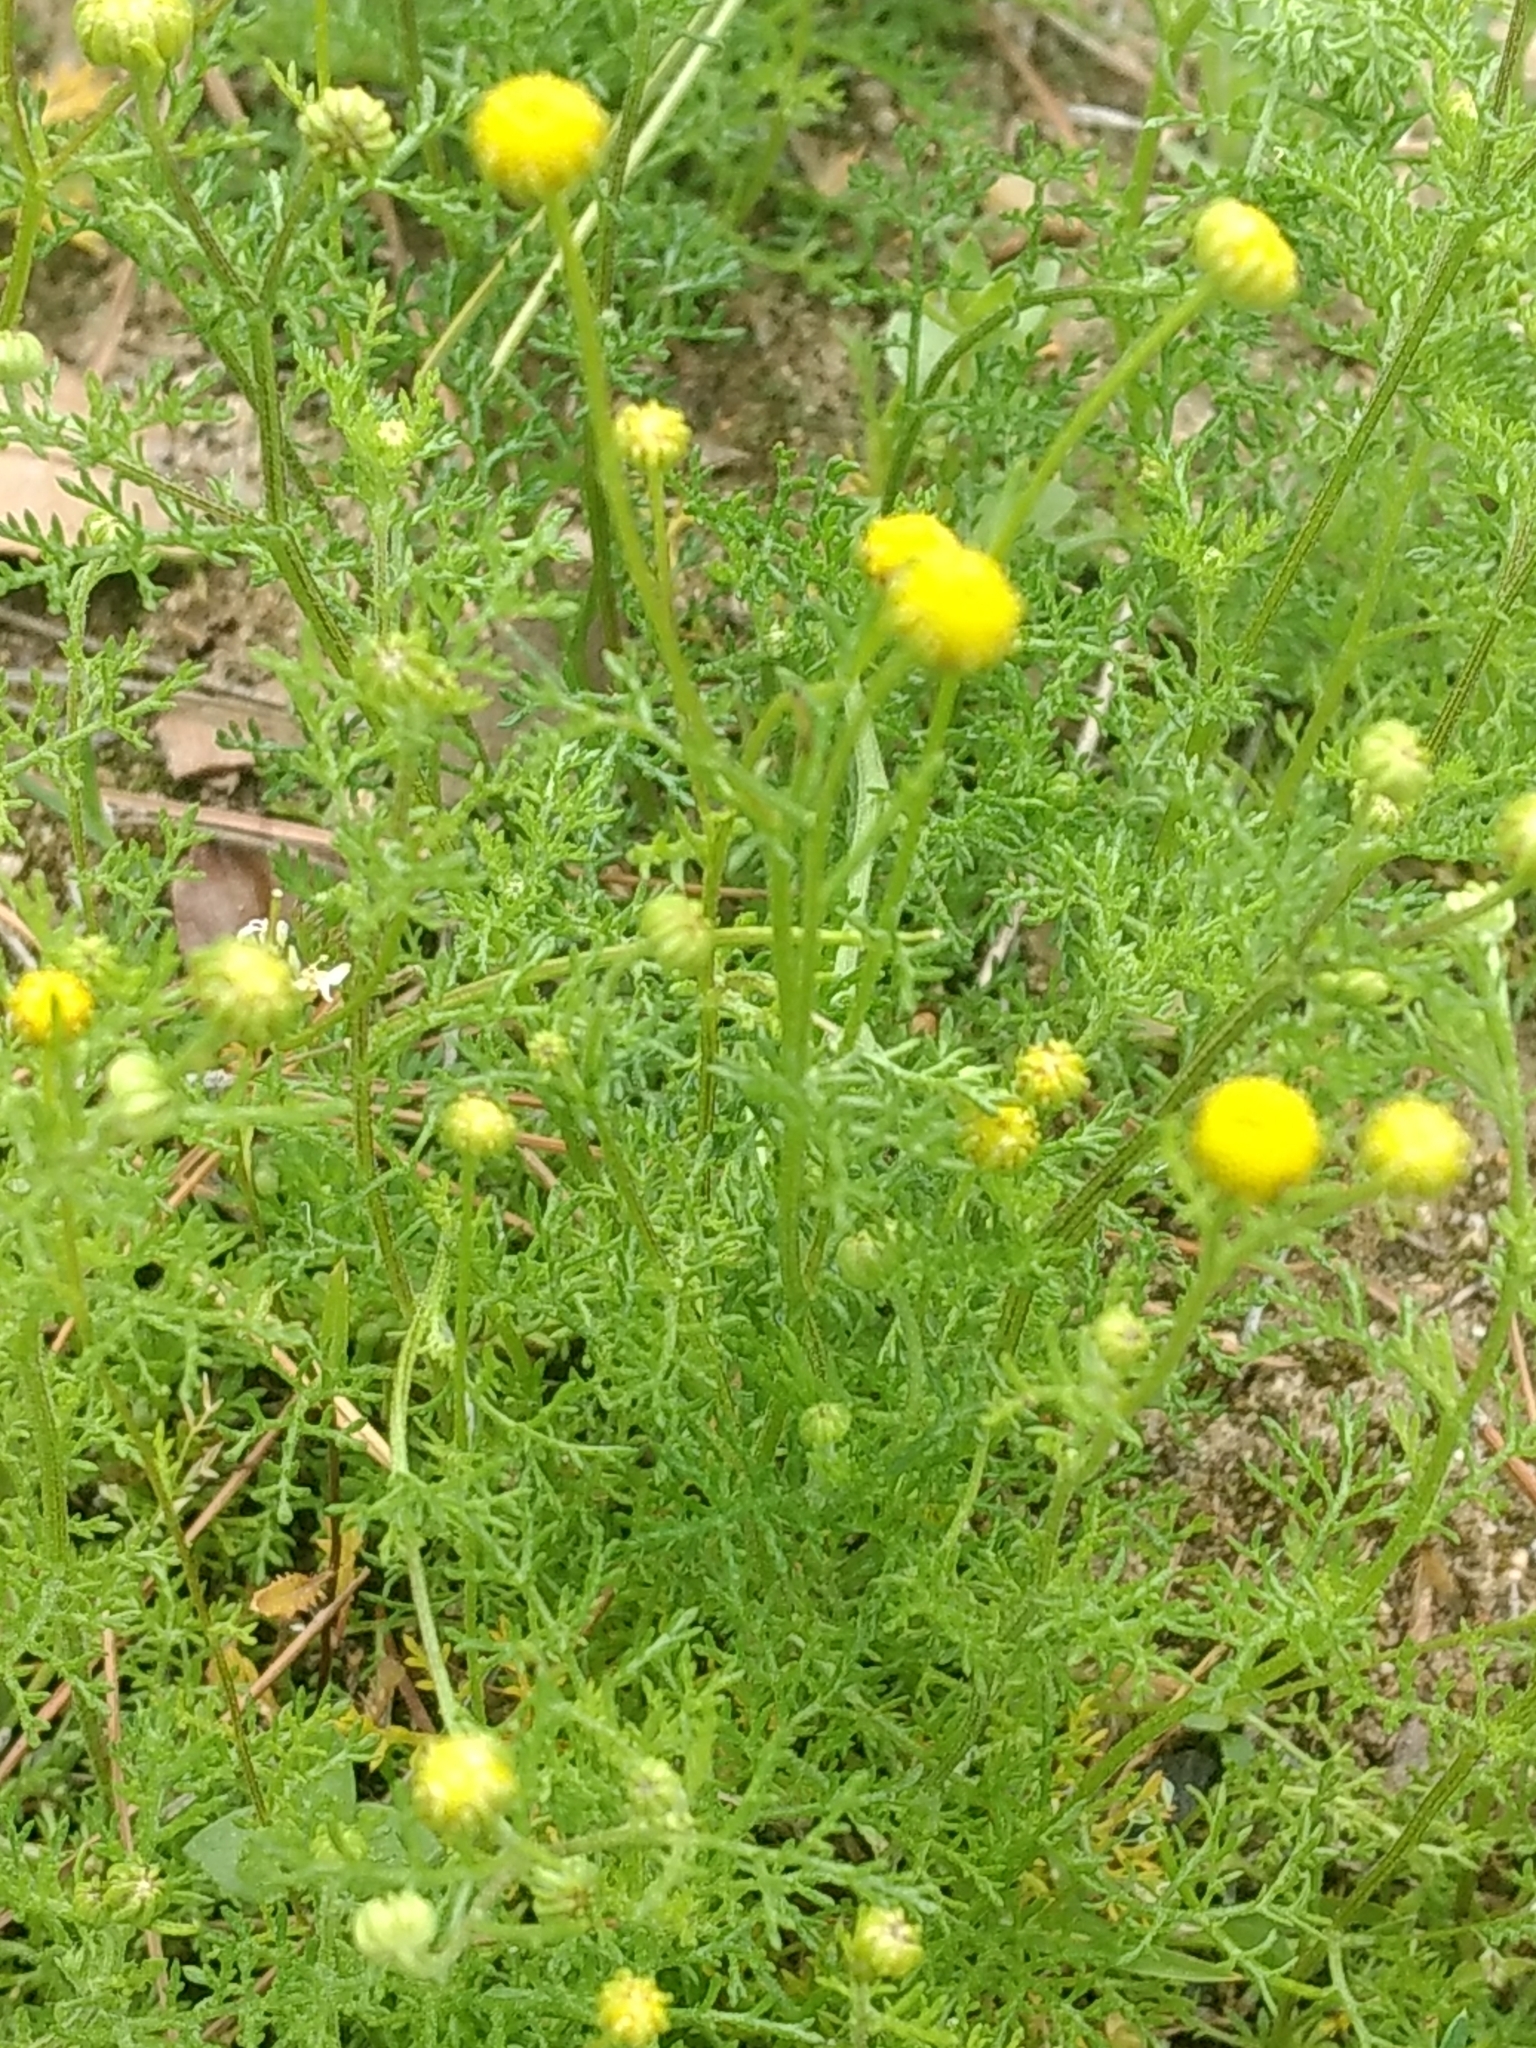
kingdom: Plantae
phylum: Tracheophyta
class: Magnoliopsida
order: Asterales
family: Asteraceae
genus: Oncosiphon
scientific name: Oncosiphon pilulifer
